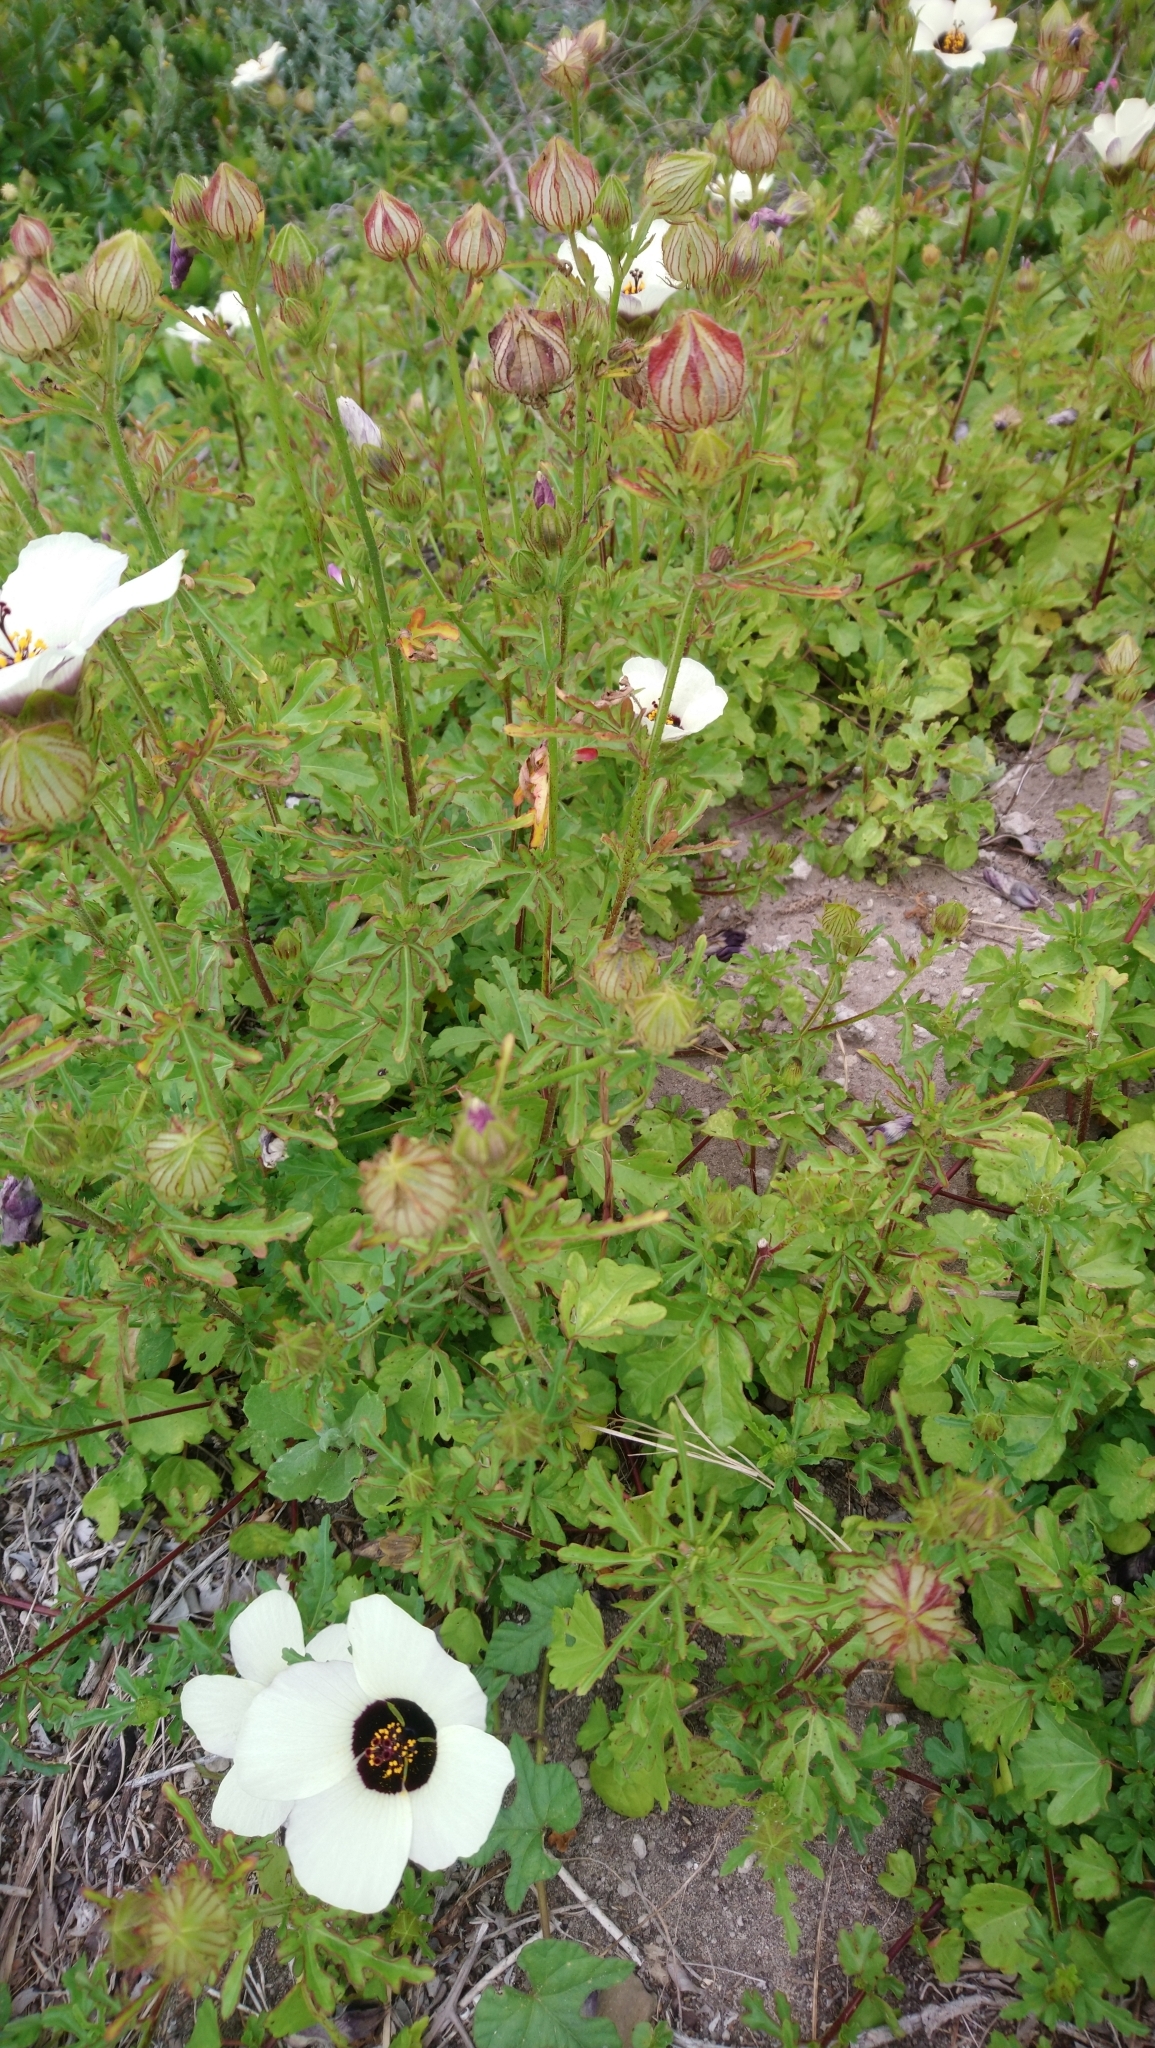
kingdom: Plantae
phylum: Tracheophyta
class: Magnoliopsida
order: Malvales
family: Malvaceae
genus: Hibiscus
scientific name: Hibiscus trionum
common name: Bladder ketmia
